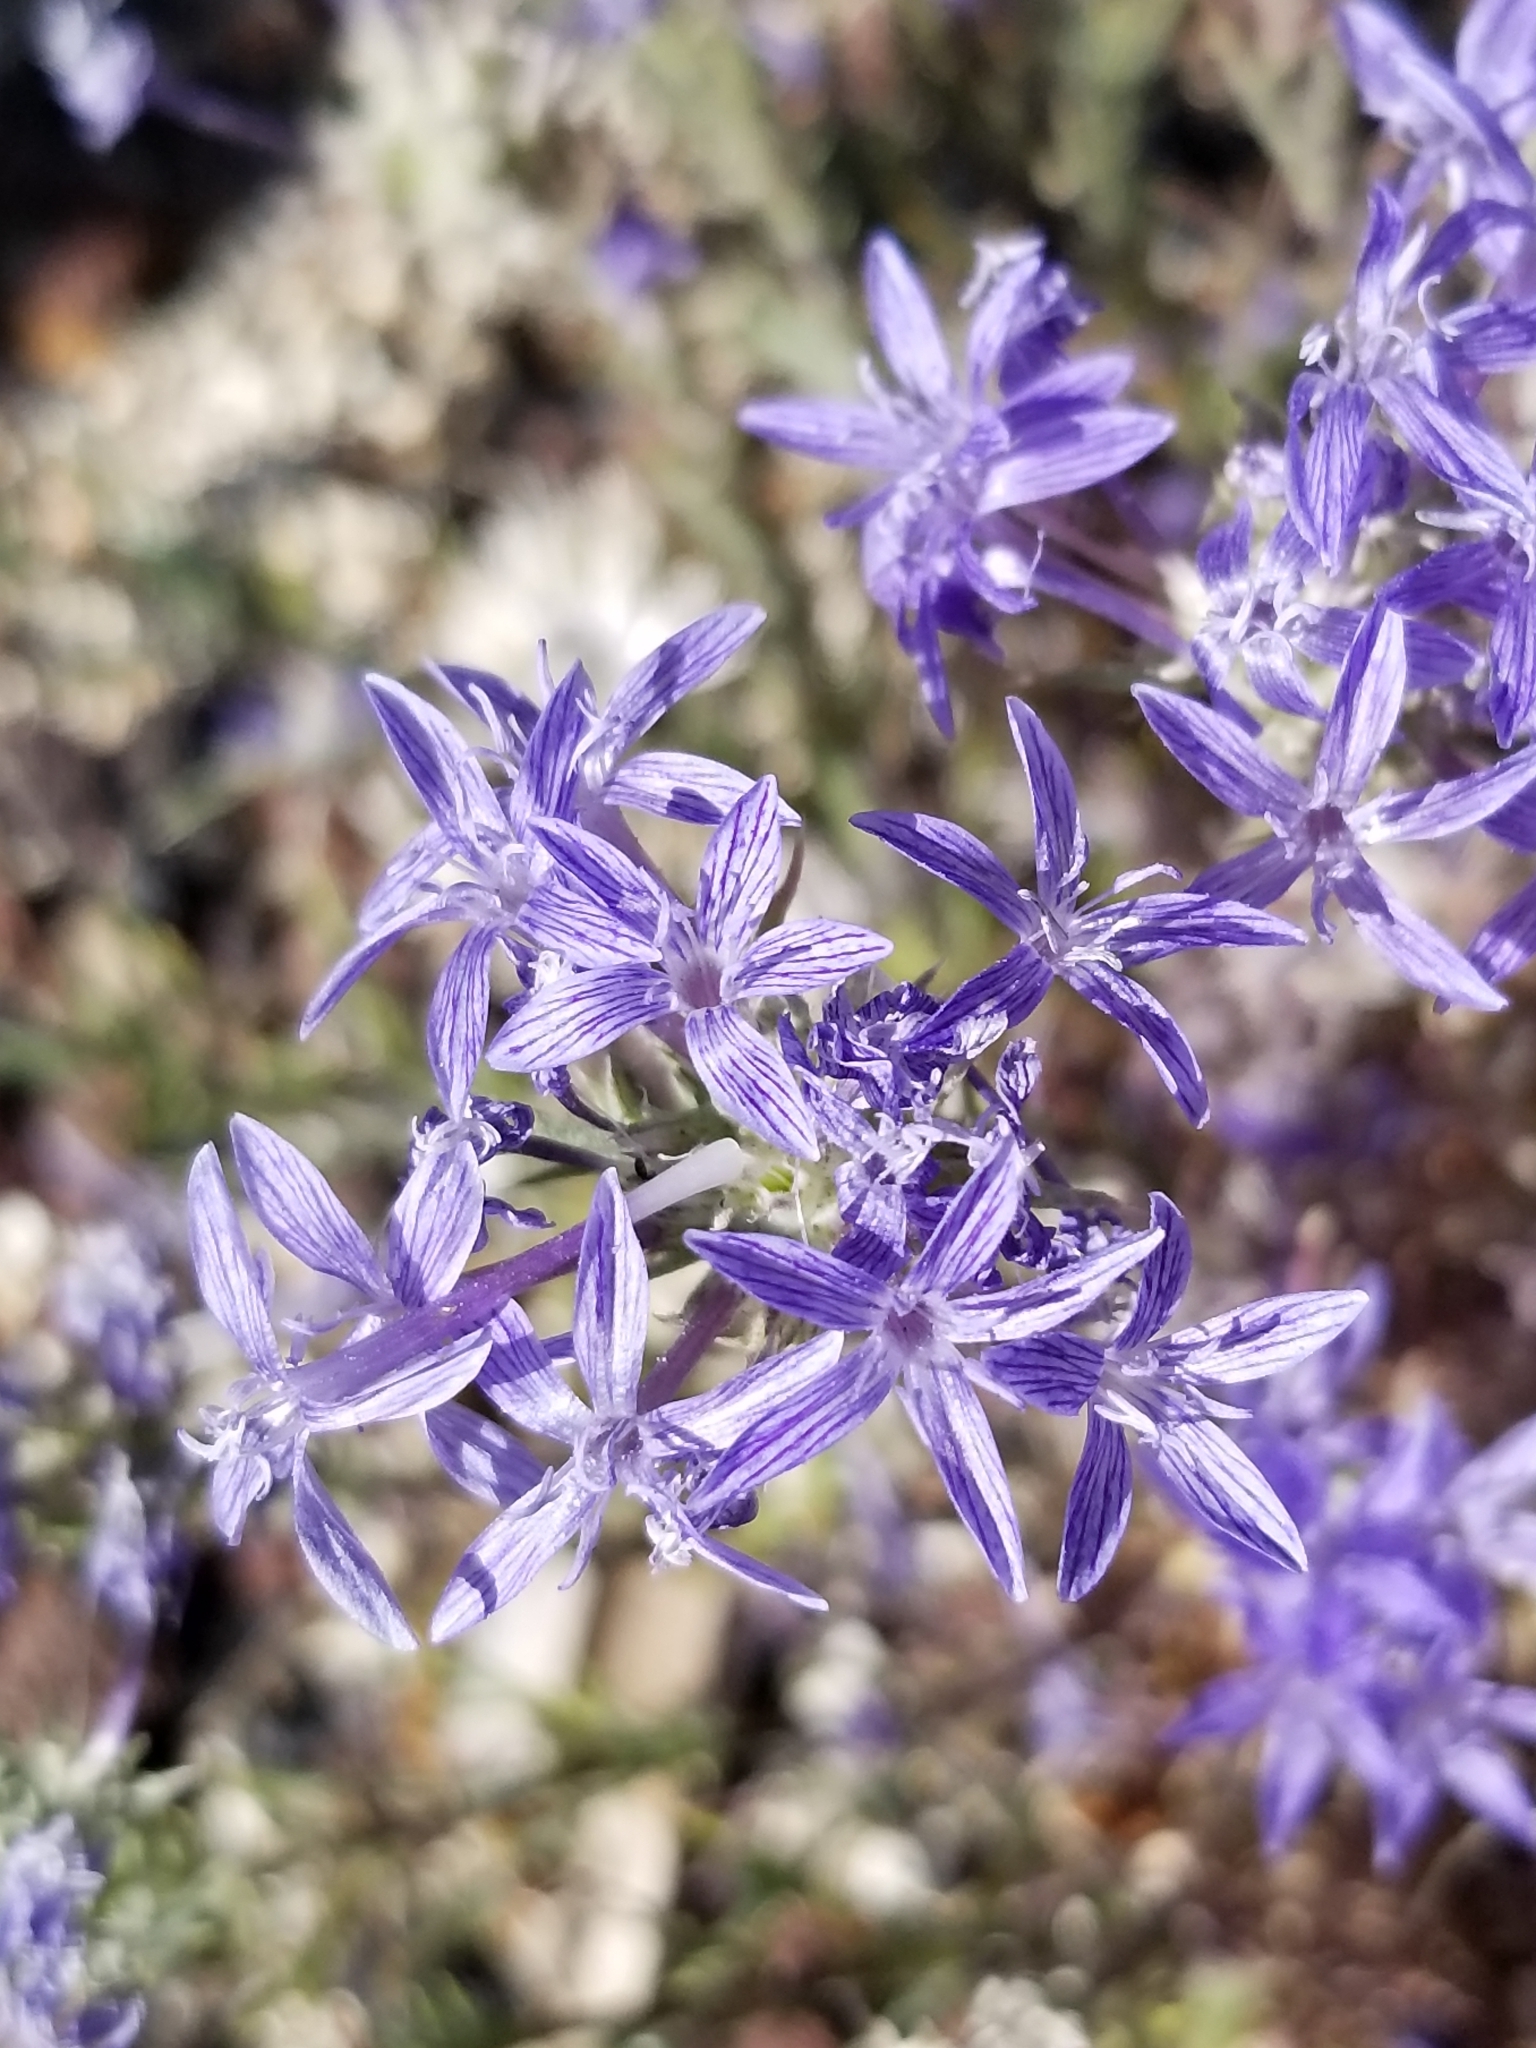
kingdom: Plantae
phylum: Tracheophyta
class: Magnoliopsida
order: Ericales
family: Polemoniaceae
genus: Eriastrum
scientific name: Eriastrum densifolium
